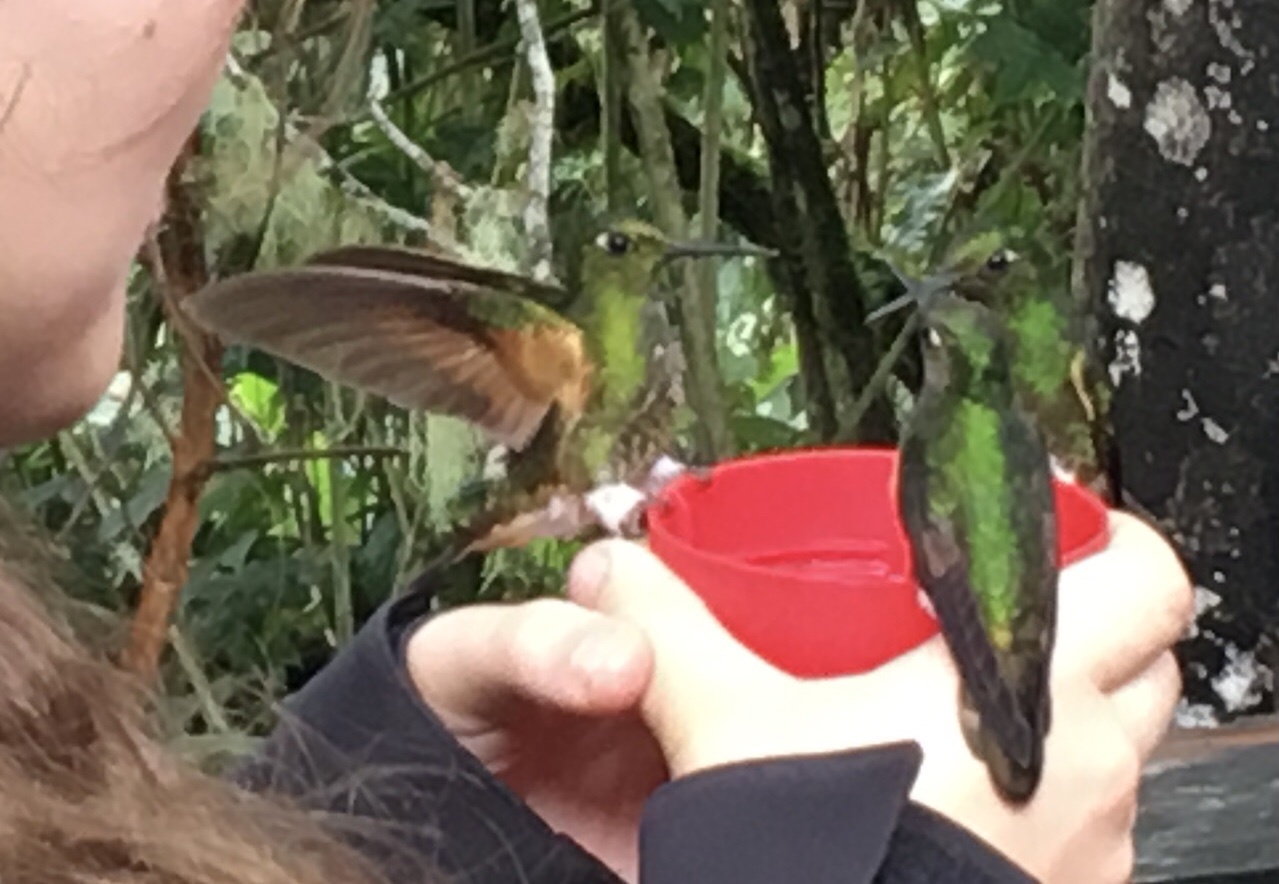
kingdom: Animalia
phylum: Chordata
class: Aves
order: Apodiformes
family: Trochilidae
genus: Boissonneaua
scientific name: Boissonneaua flavescens
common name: Buff-tailed coronet
